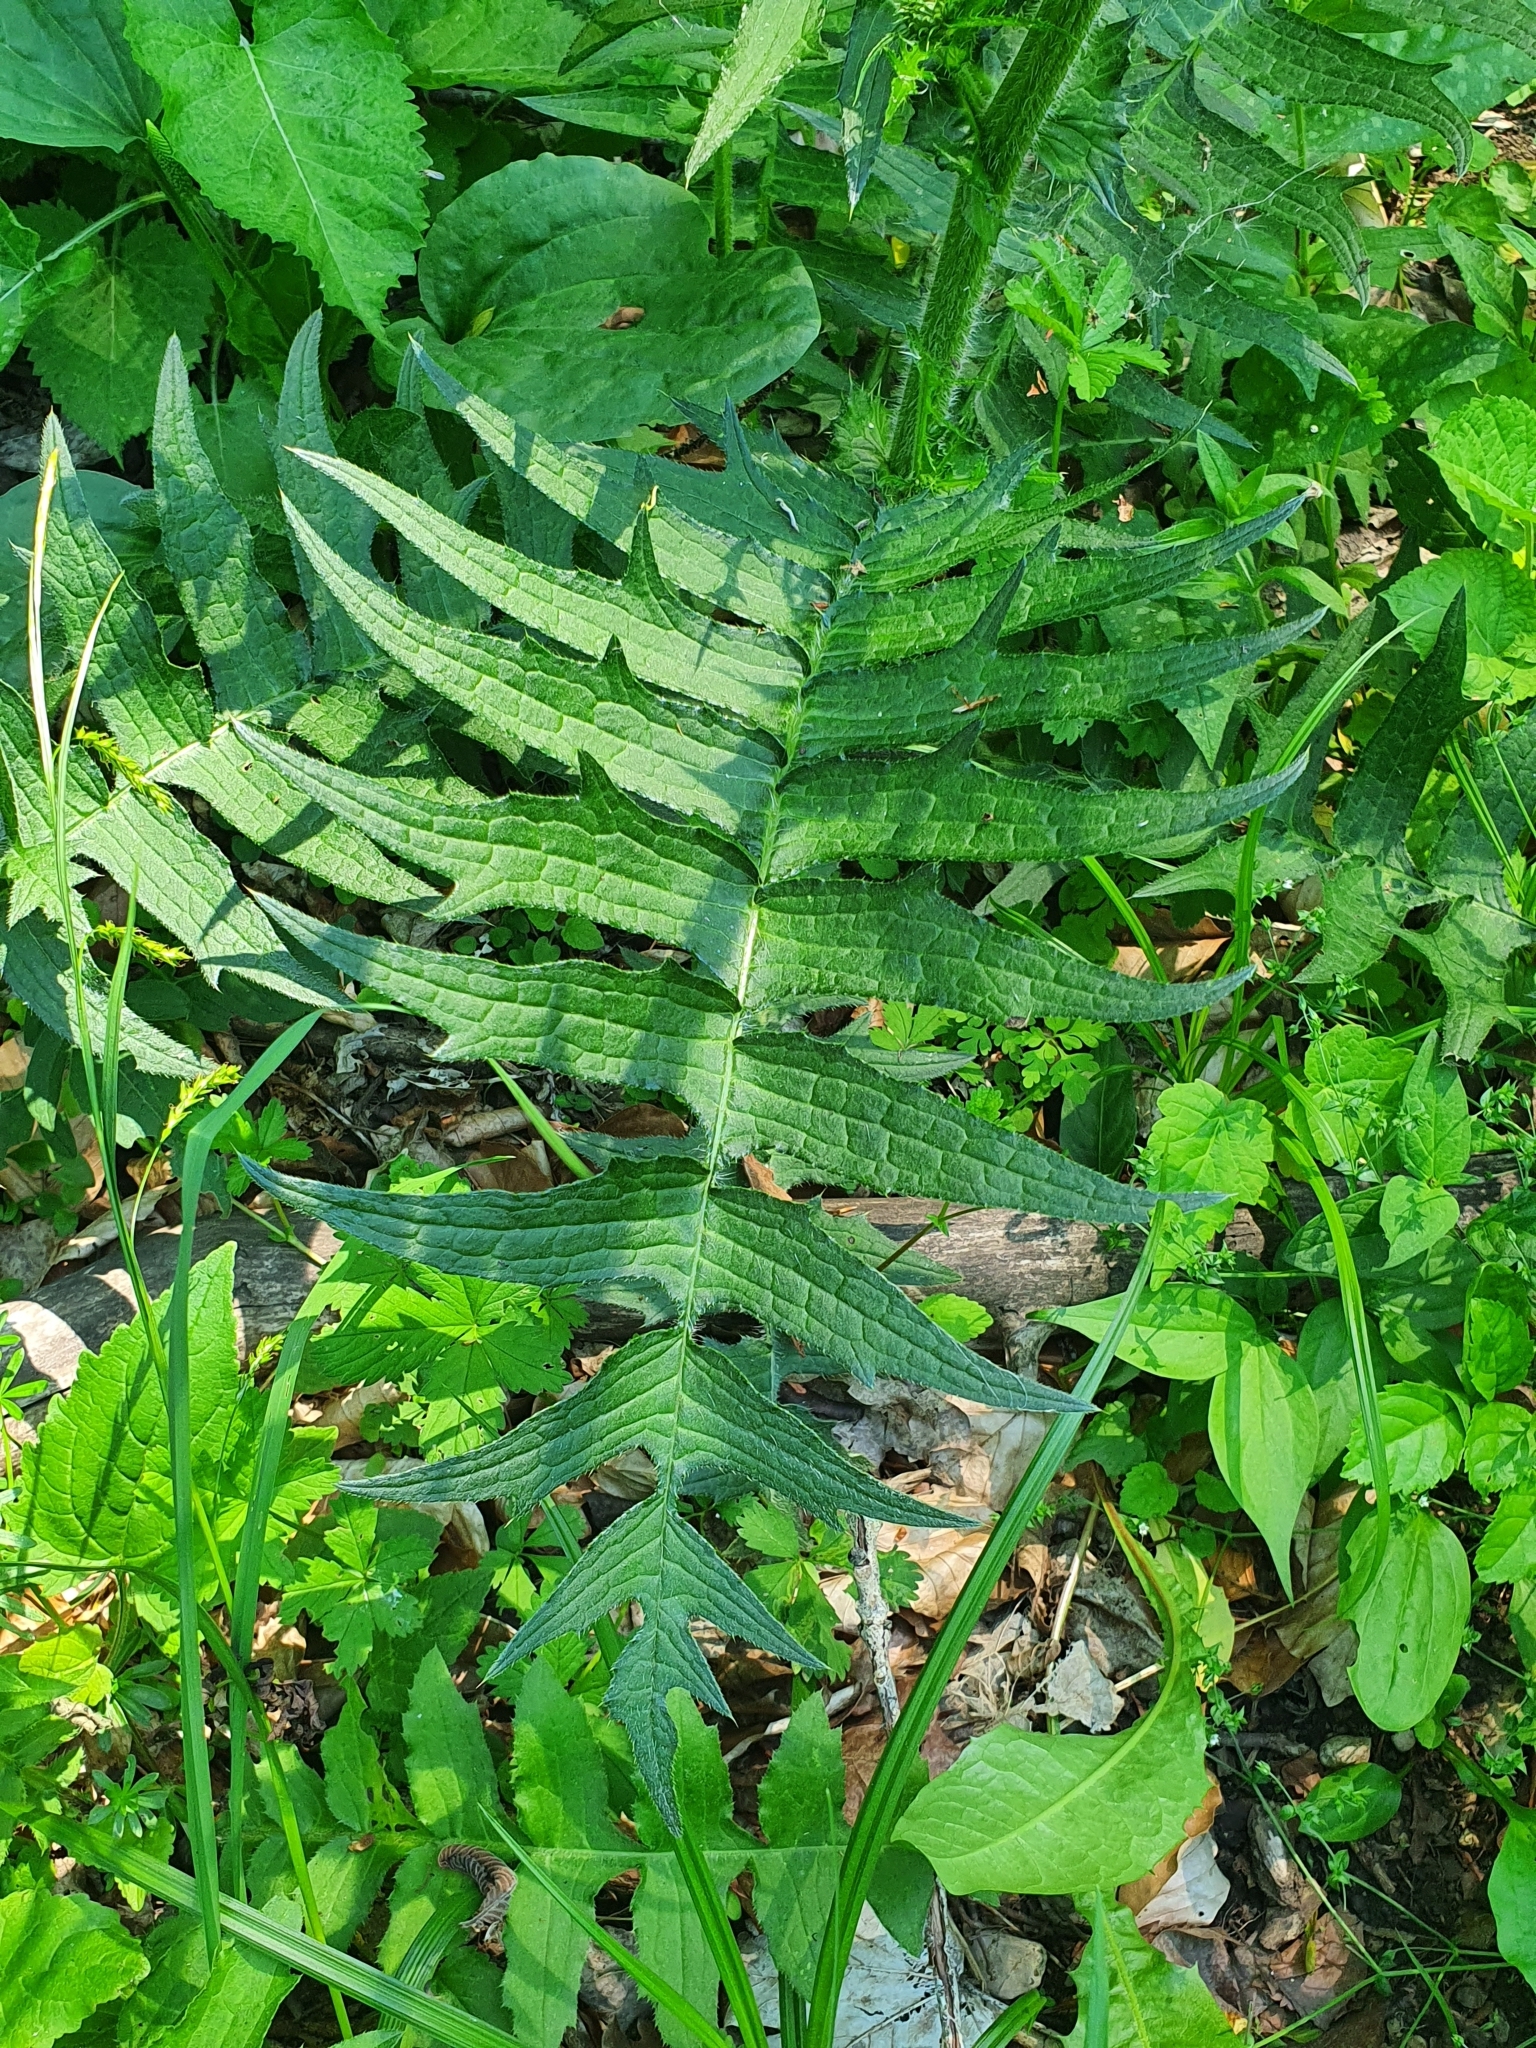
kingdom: Plantae
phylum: Tracheophyta
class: Magnoliopsida
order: Asterales
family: Asteraceae
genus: Cirsium
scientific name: Cirsium erisithales
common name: Yellow thistle
